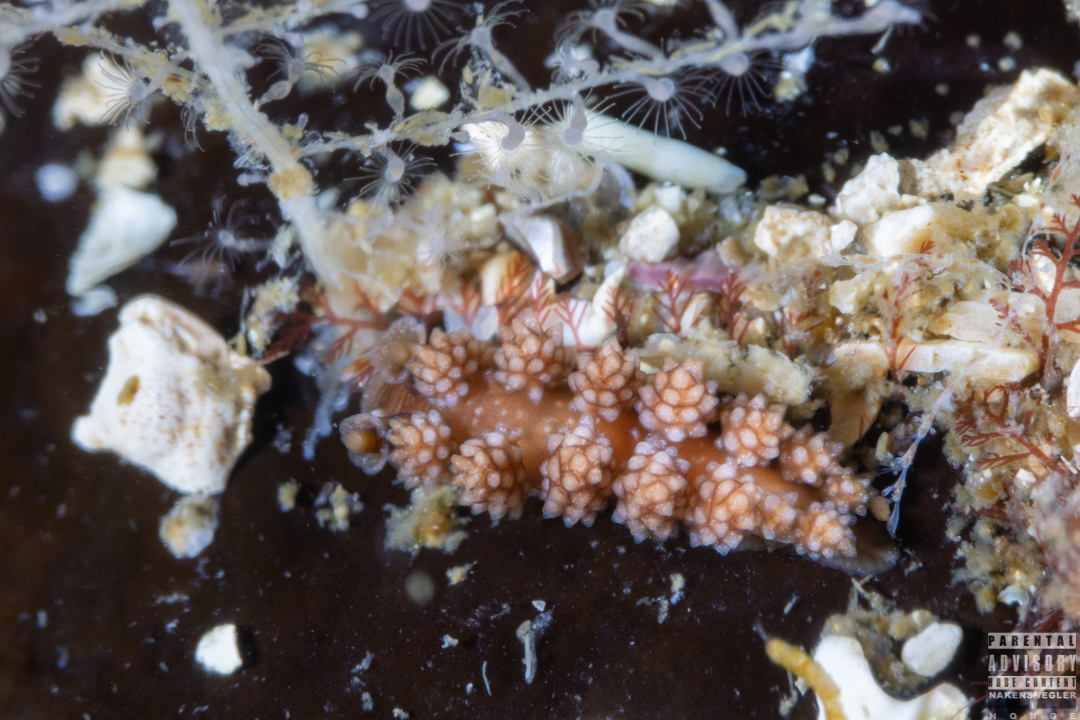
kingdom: Animalia
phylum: Mollusca
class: Gastropoda
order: Nudibranchia
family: Dotidae
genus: Doto
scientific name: Doto fragilis
